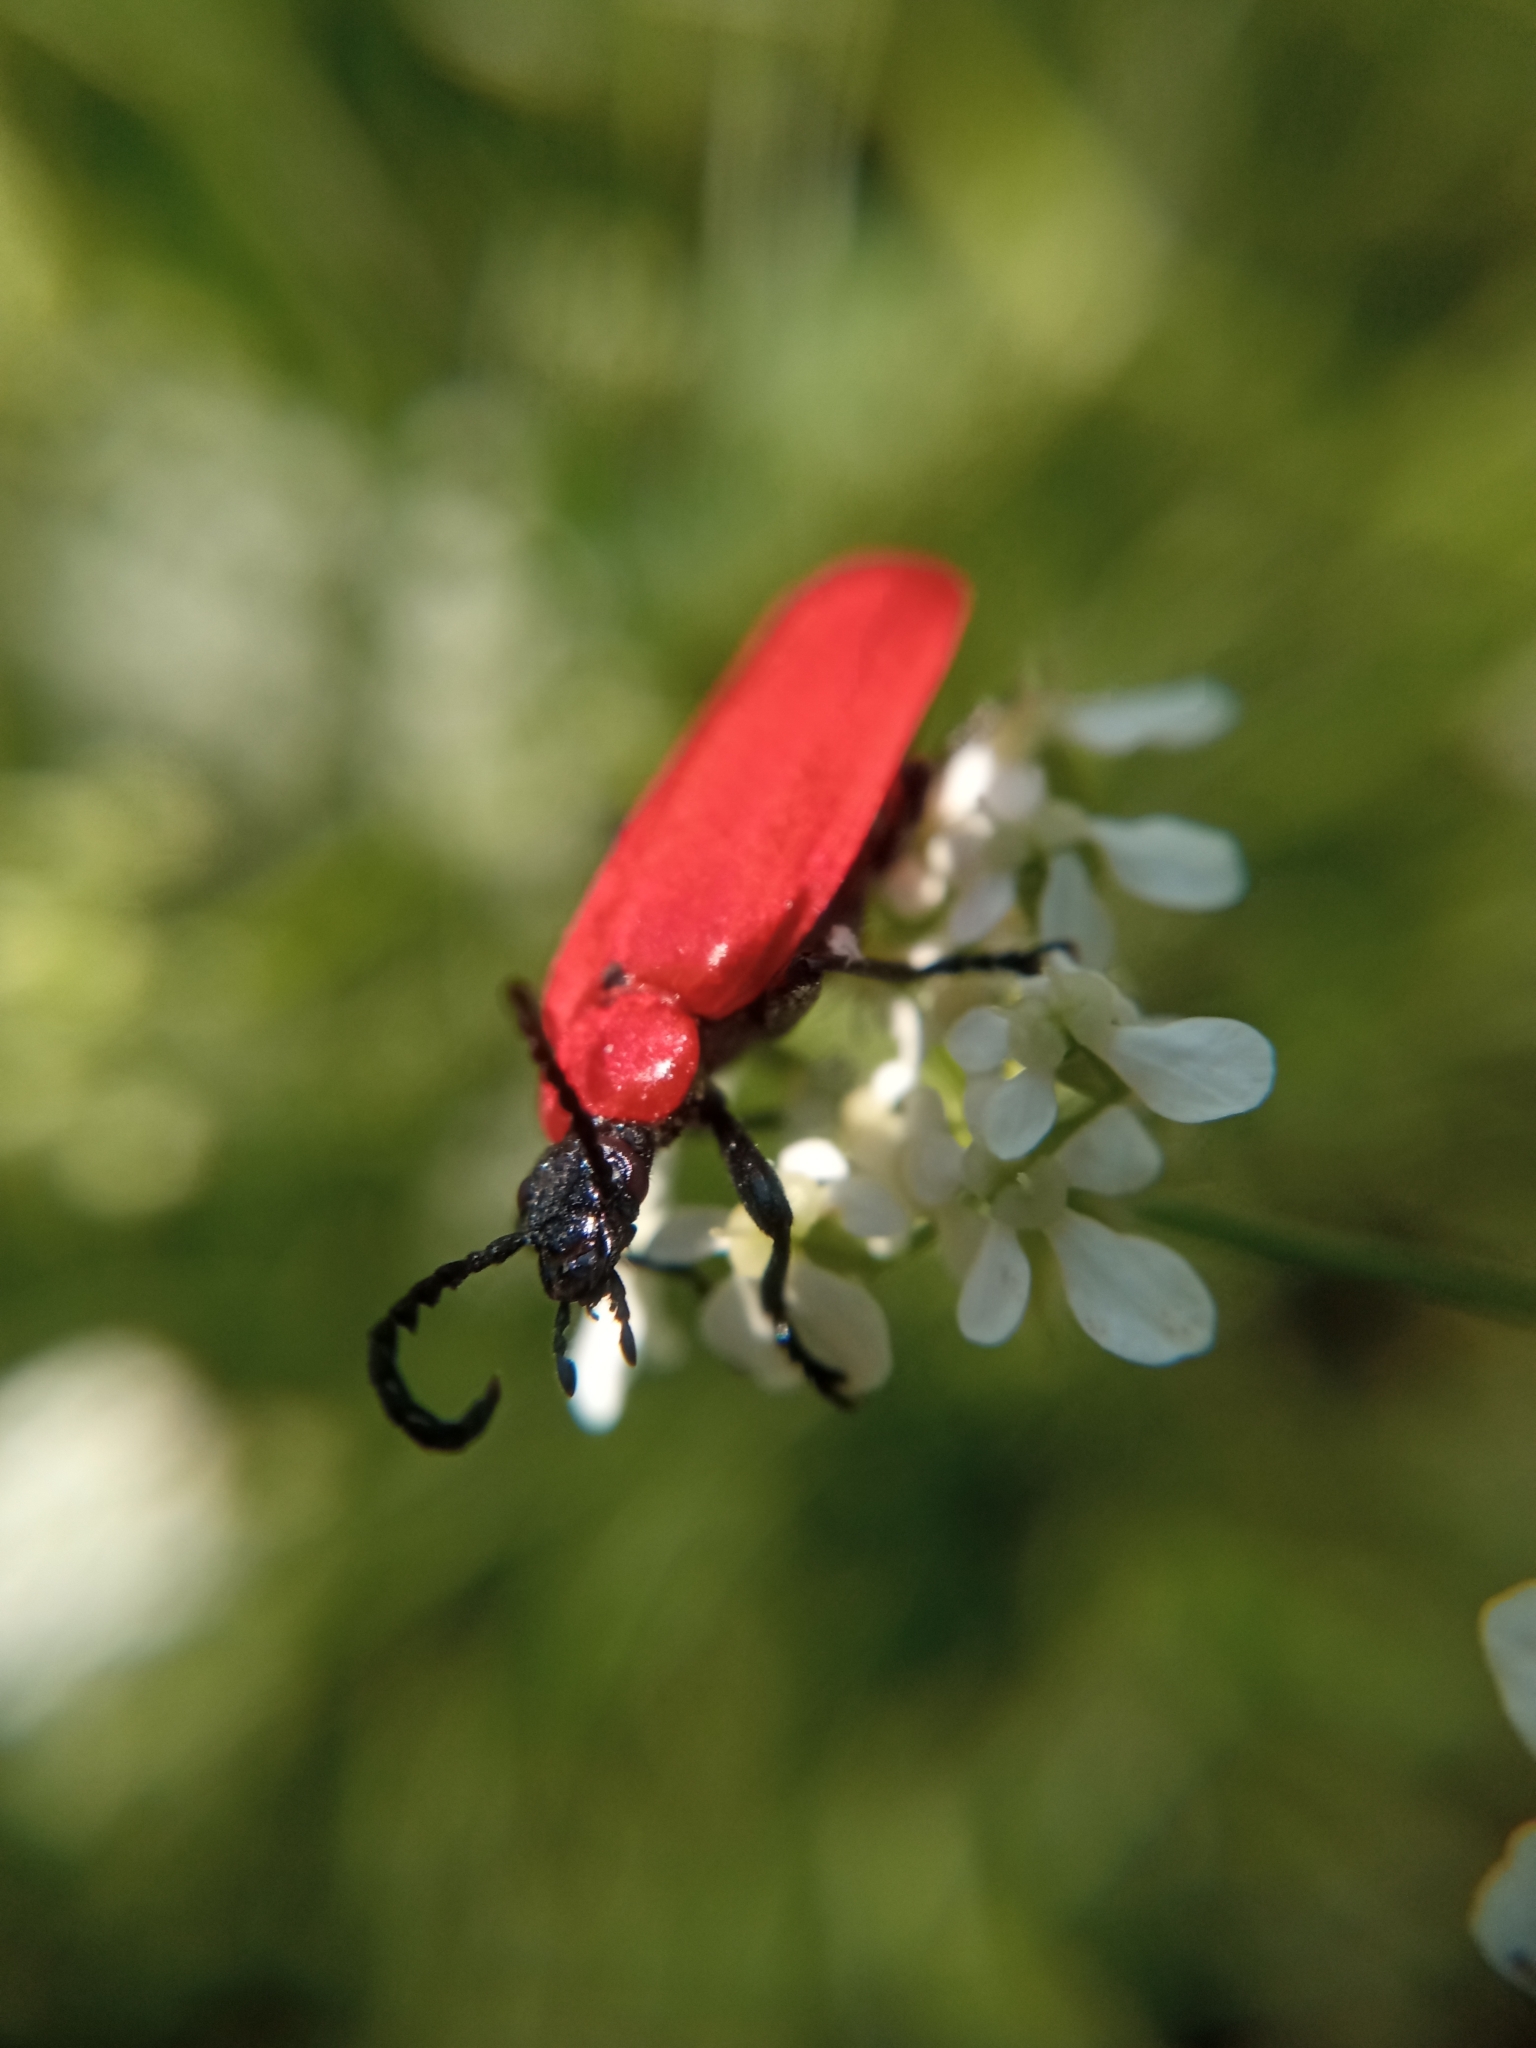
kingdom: Animalia
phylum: Arthropoda
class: Insecta
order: Coleoptera
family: Pyrochroidae
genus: Pyrochroa
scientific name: Pyrochroa coccinea
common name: Black-headed cardinal beetle
